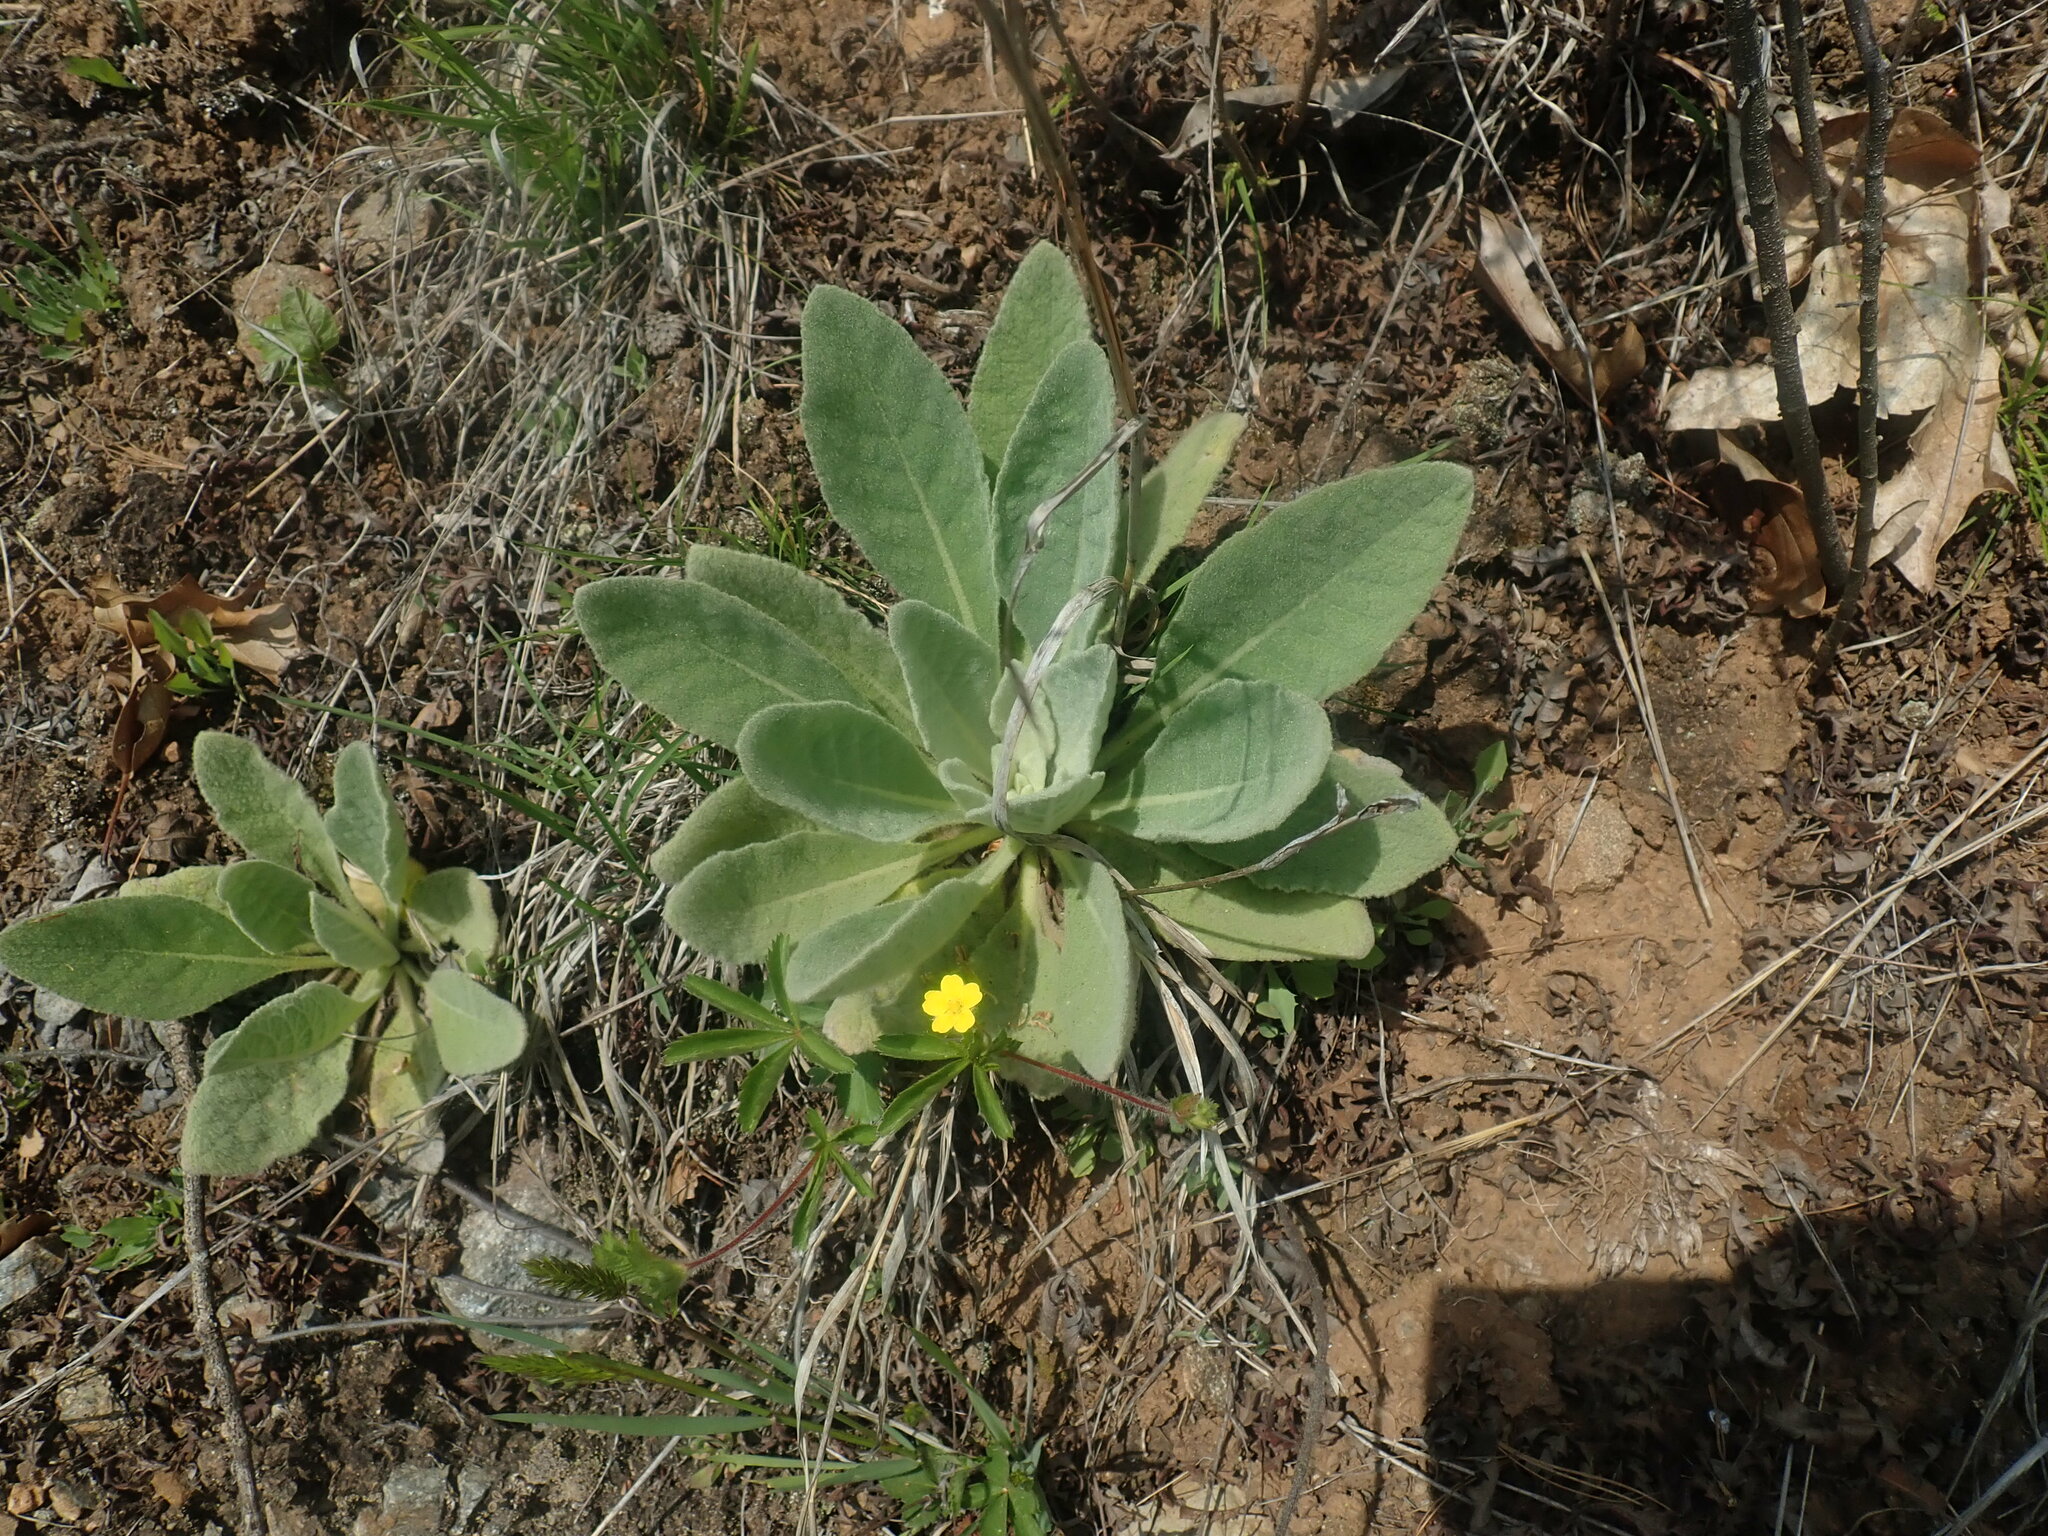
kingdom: Plantae
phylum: Tracheophyta
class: Magnoliopsida
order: Lamiales
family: Scrophulariaceae
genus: Verbascum
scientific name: Verbascum thapsus
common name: Common mullein
